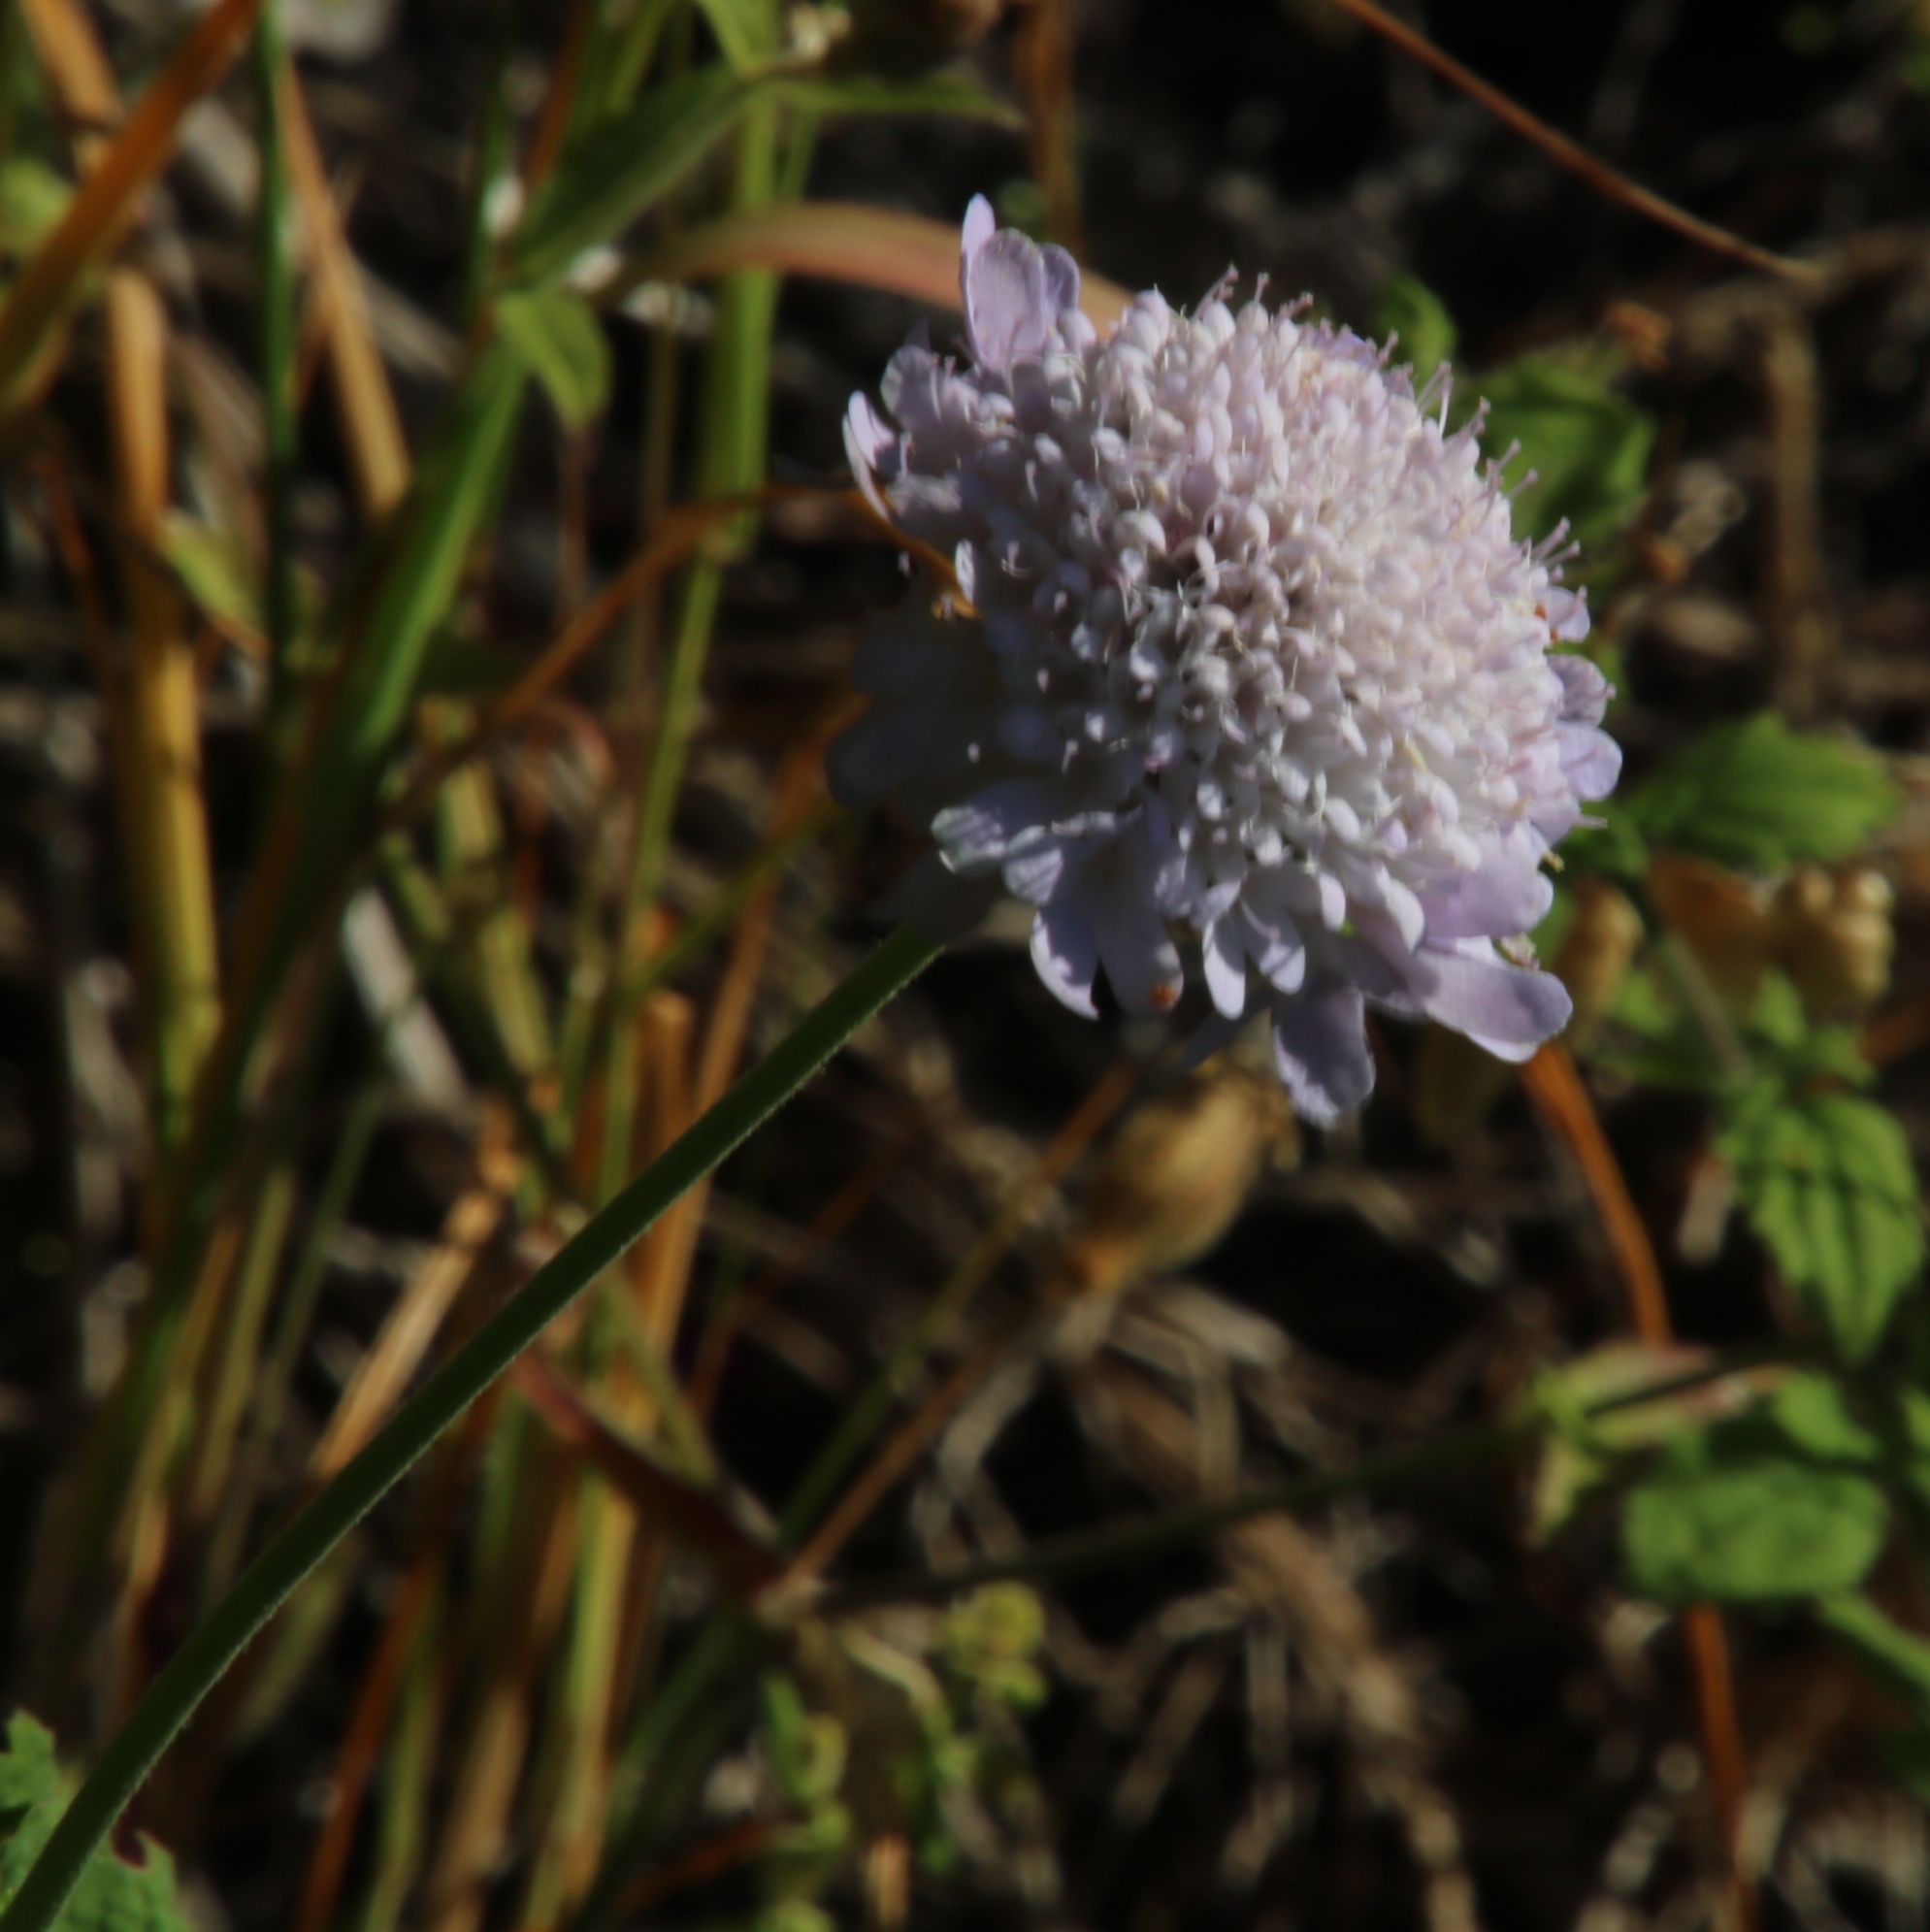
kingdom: Plantae
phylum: Tracheophyta
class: Magnoliopsida
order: Dipsacales
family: Caprifoliaceae
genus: Scabiosa
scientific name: Scabiosa africana
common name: Cape scabious
